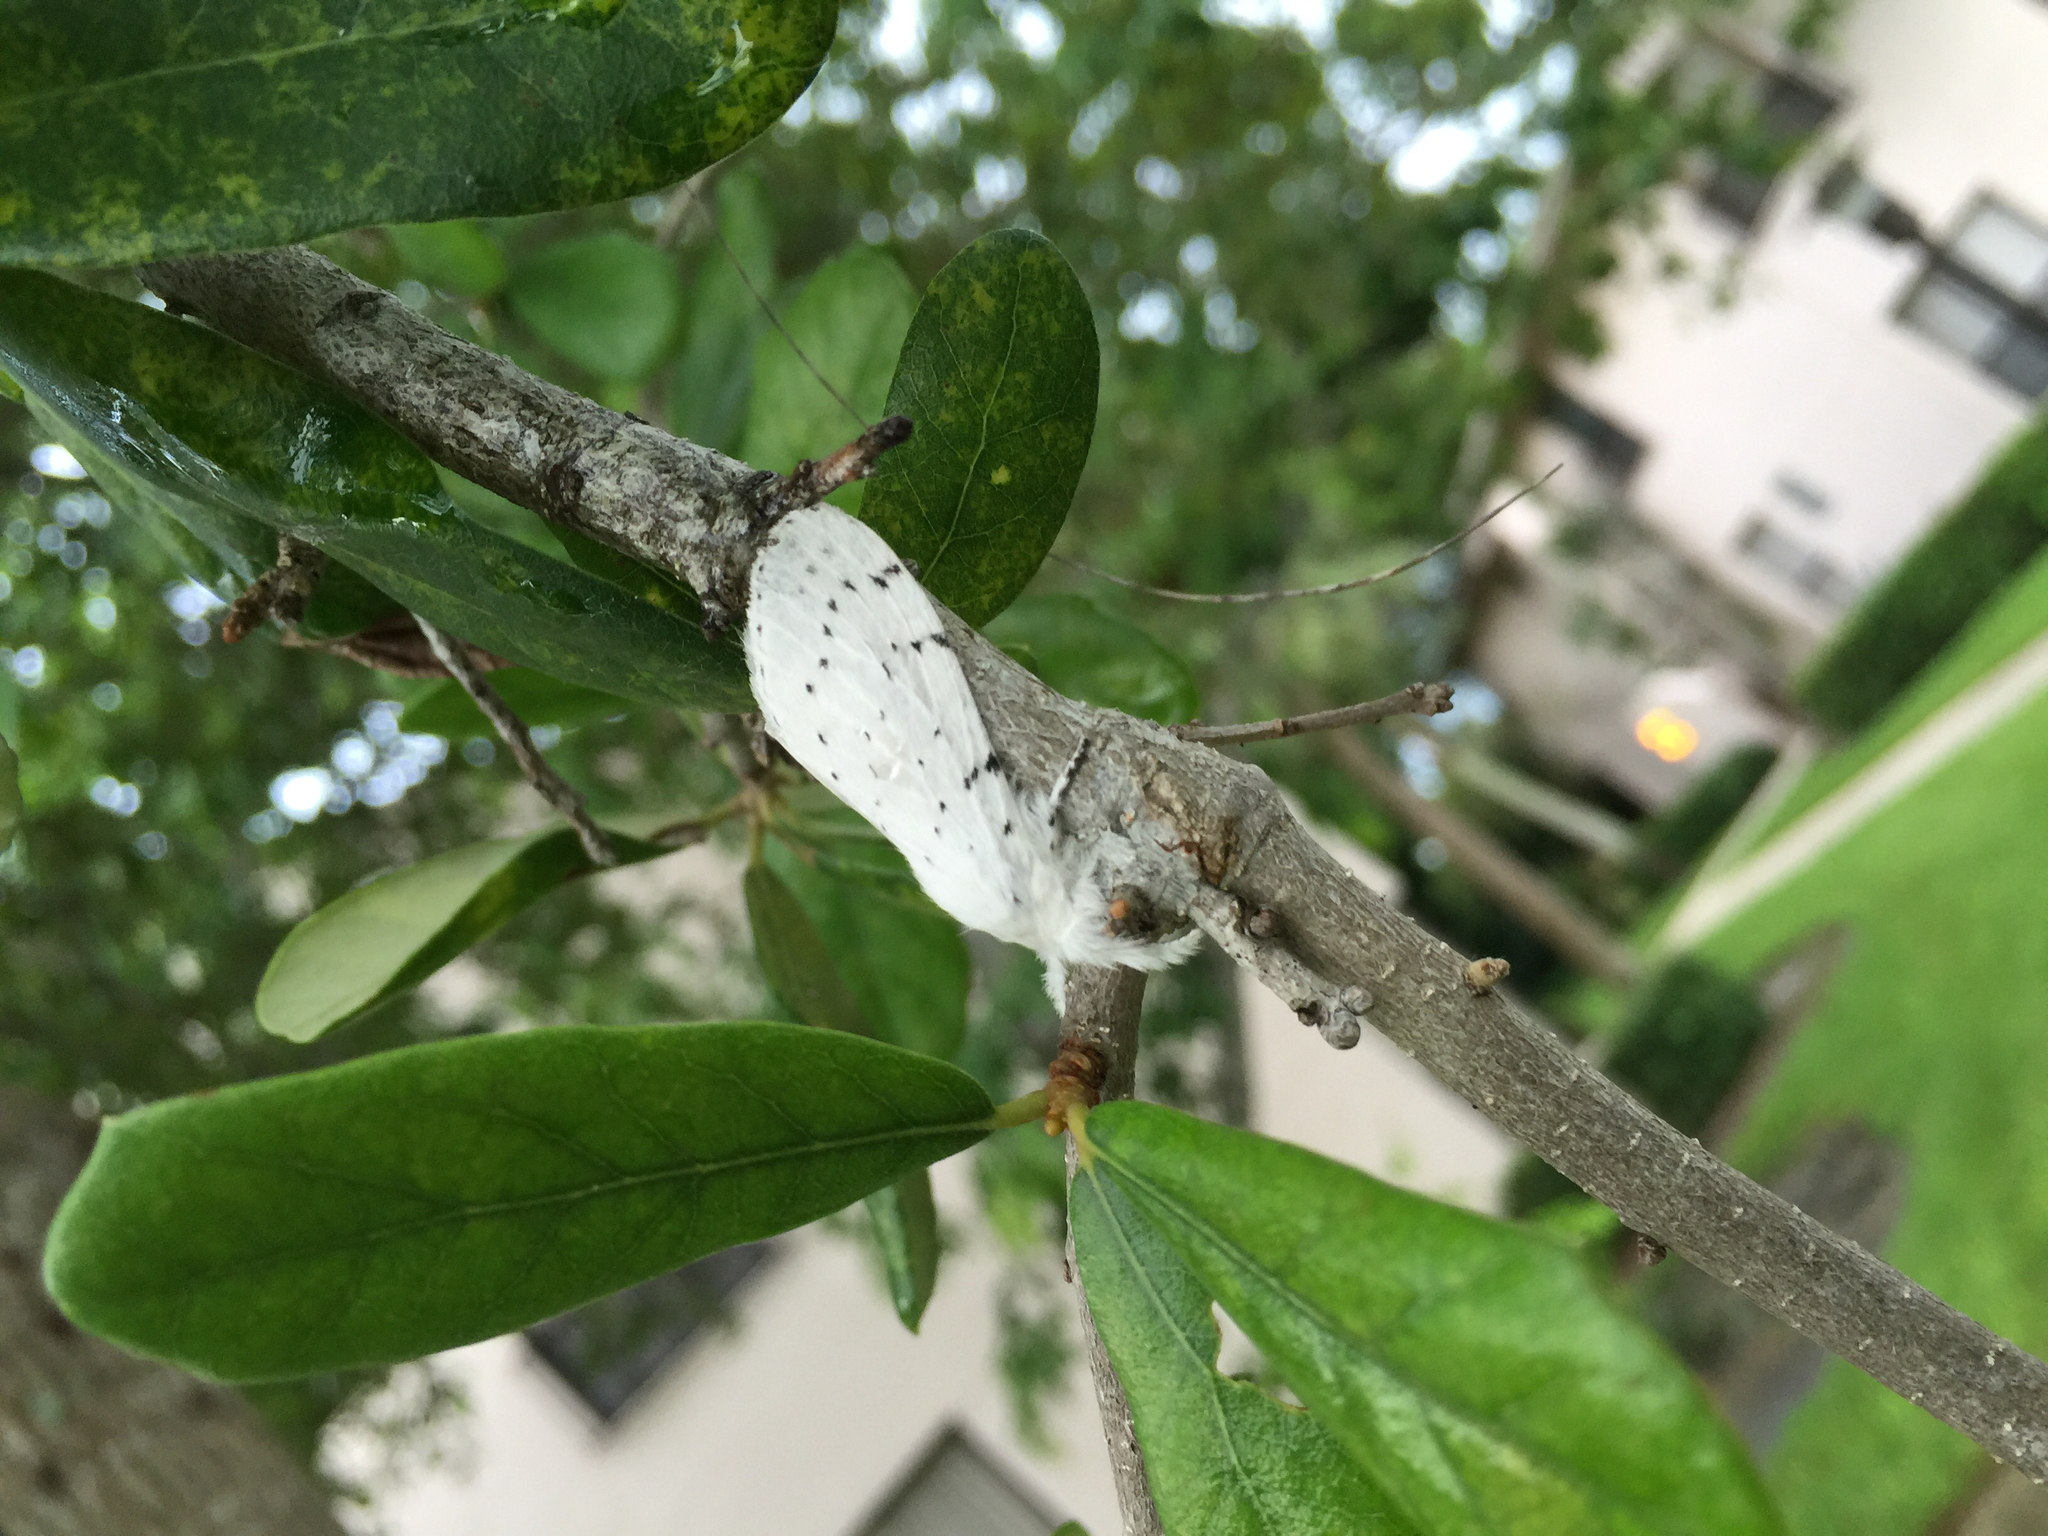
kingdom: Animalia
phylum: Arthropoda
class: Insecta
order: Lepidoptera
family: Lasiocampidae
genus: Artace
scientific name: Artace cribrarius
